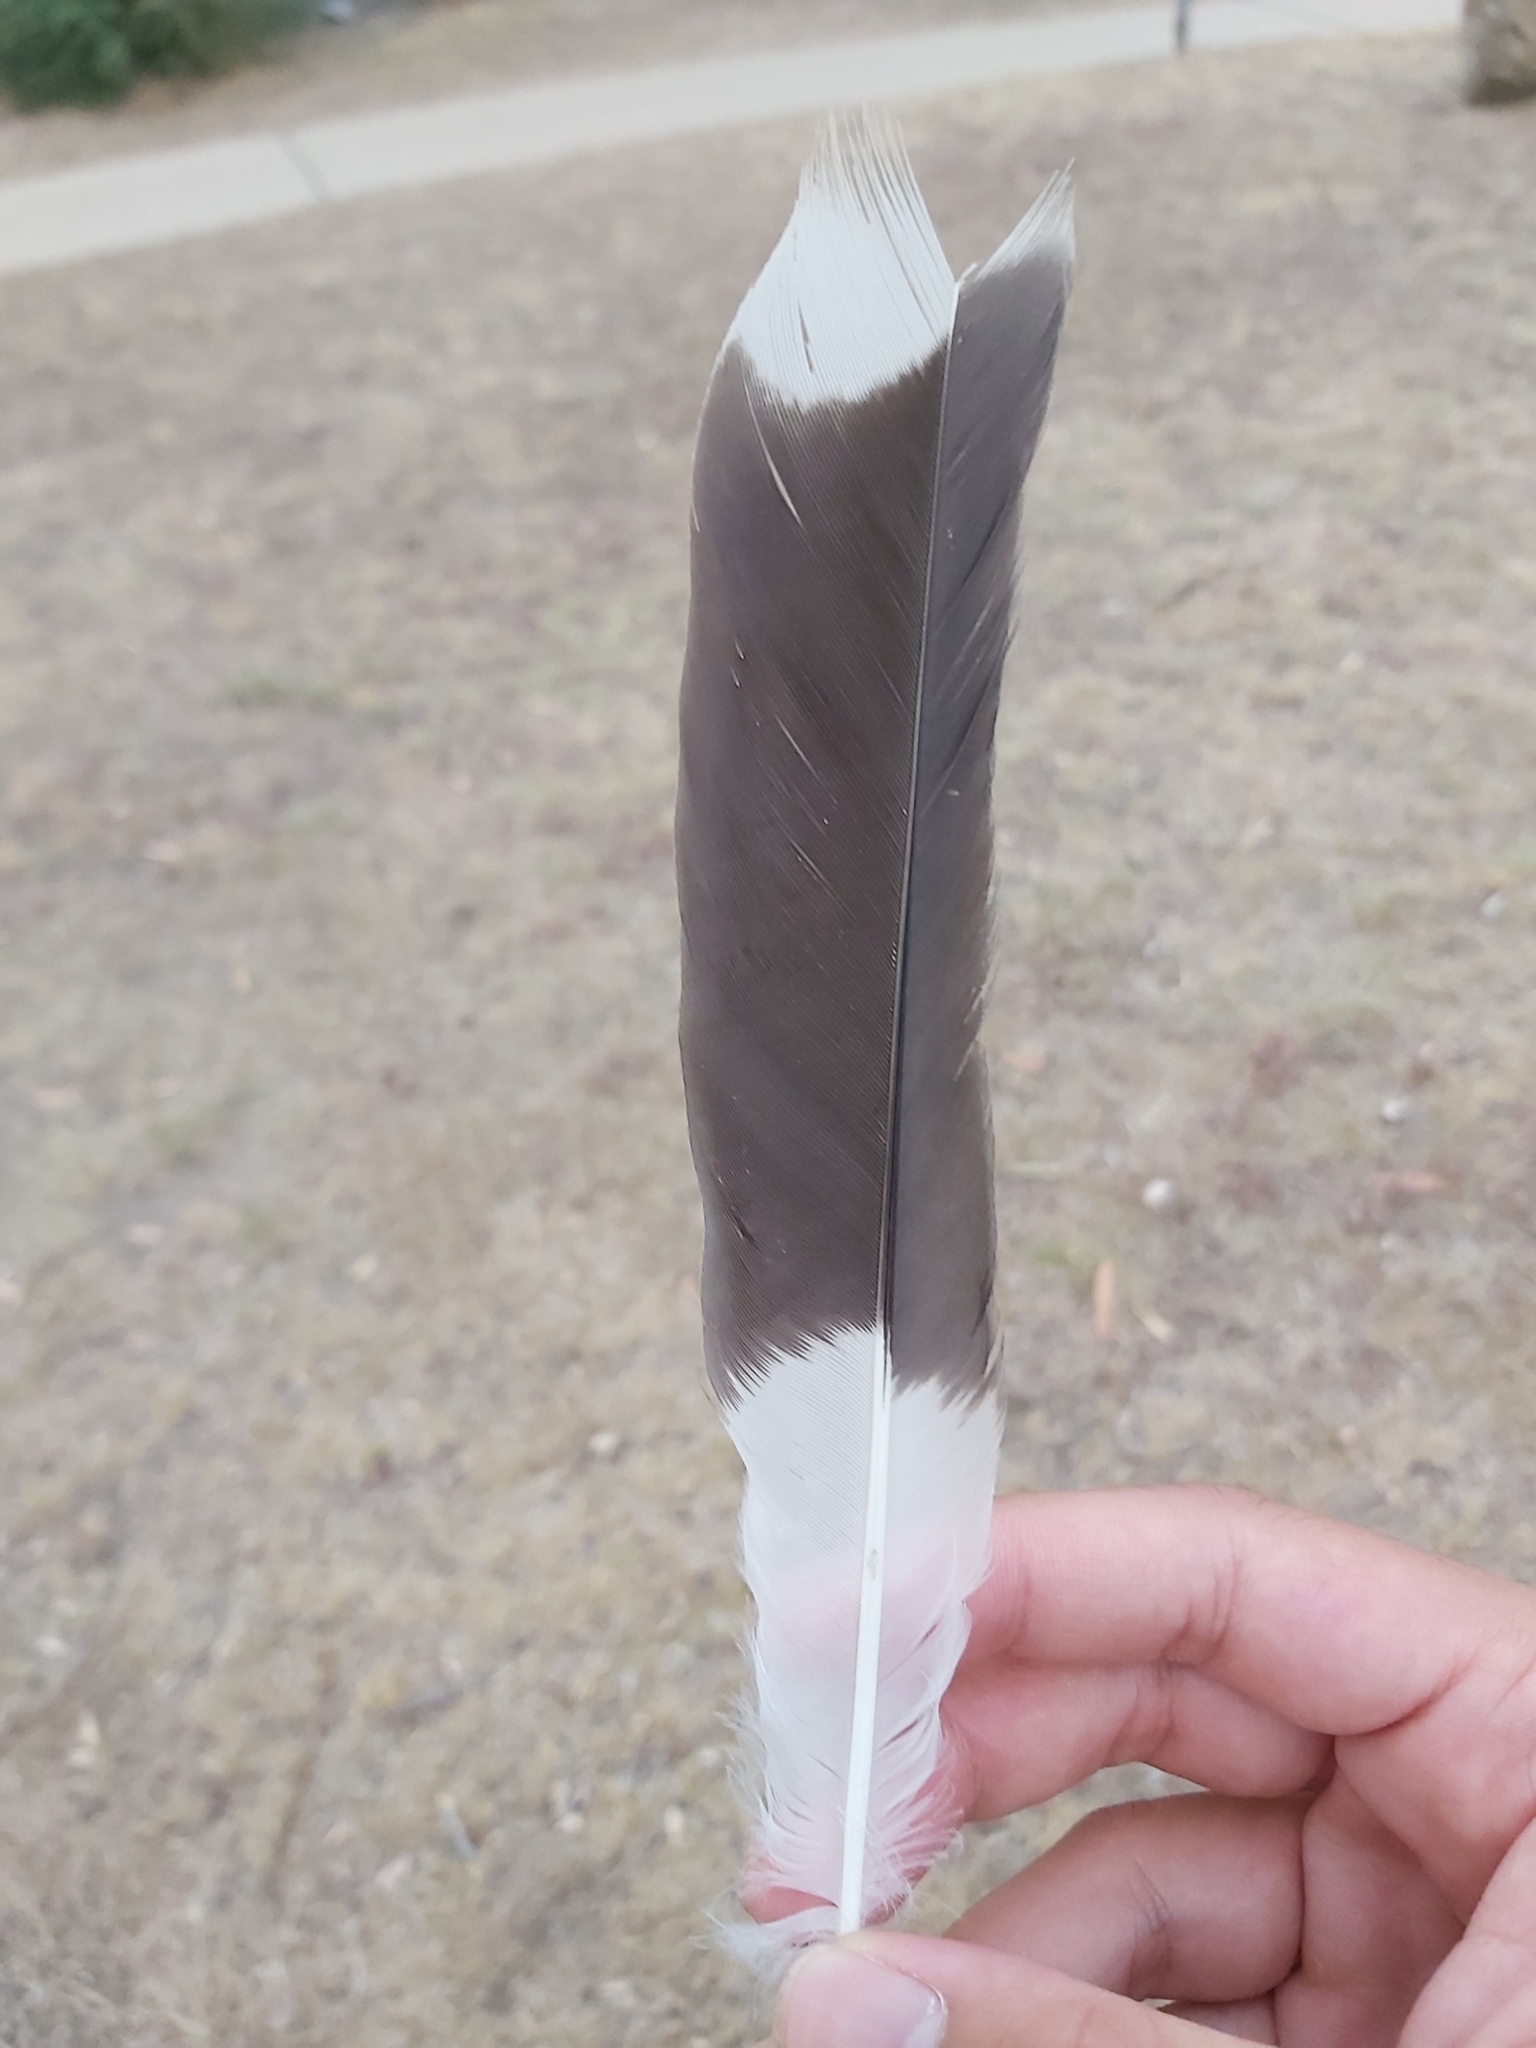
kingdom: Animalia
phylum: Chordata
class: Aves
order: Passeriformes
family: Cracticidae
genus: Strepera
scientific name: Strepera graculina
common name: Pied currawong
